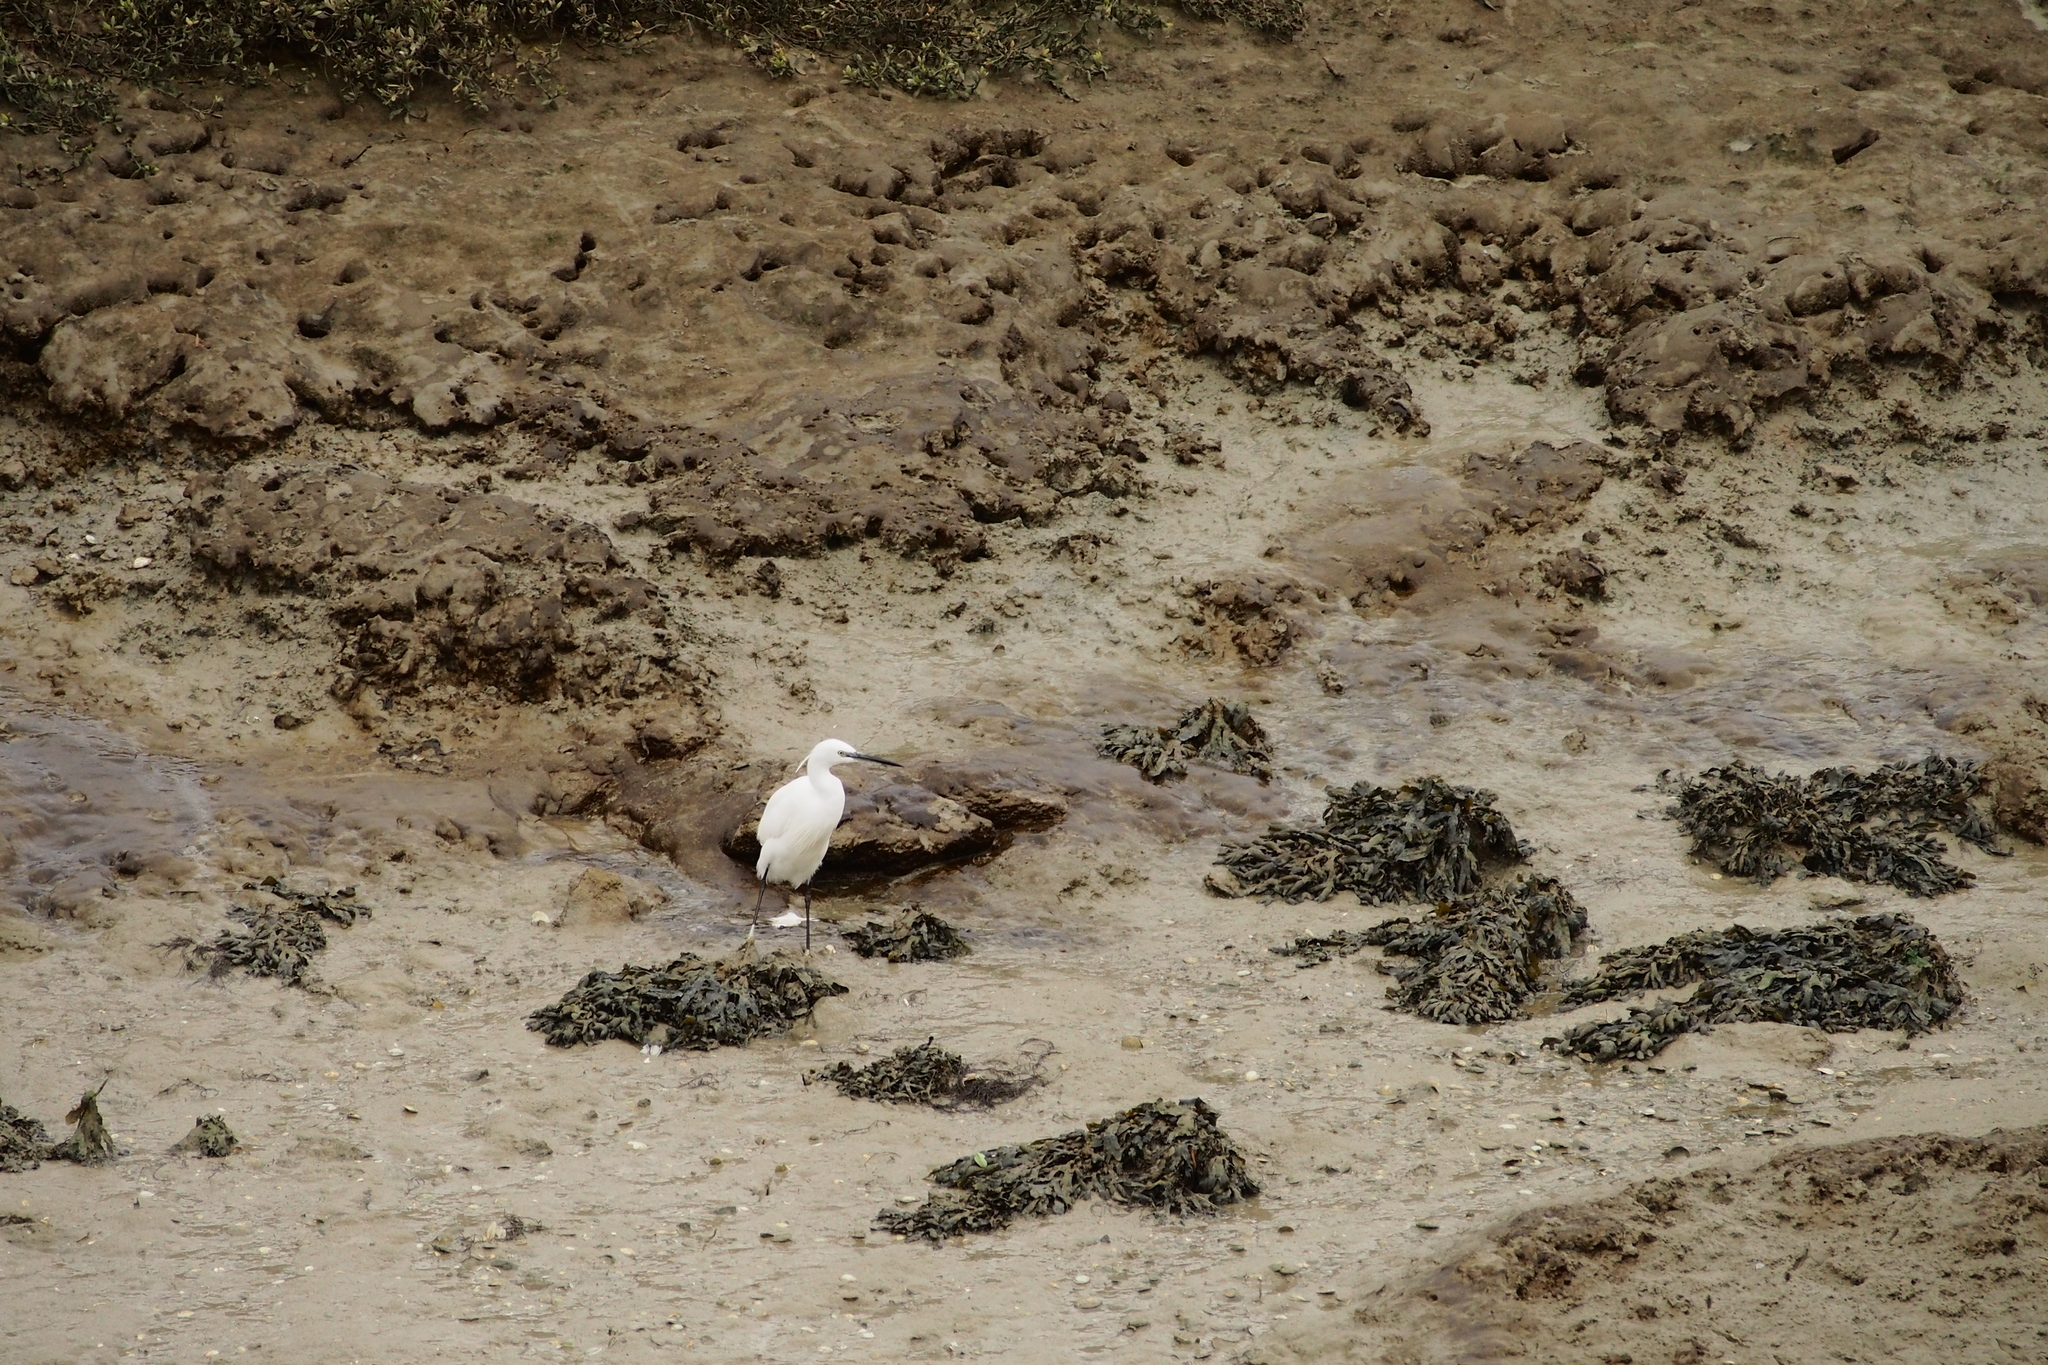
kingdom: Animalia
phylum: Chordata
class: Aves
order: Pelecaniformes
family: Ardeidae
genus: Egretta
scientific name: Egretta garzetta
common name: Little egret
